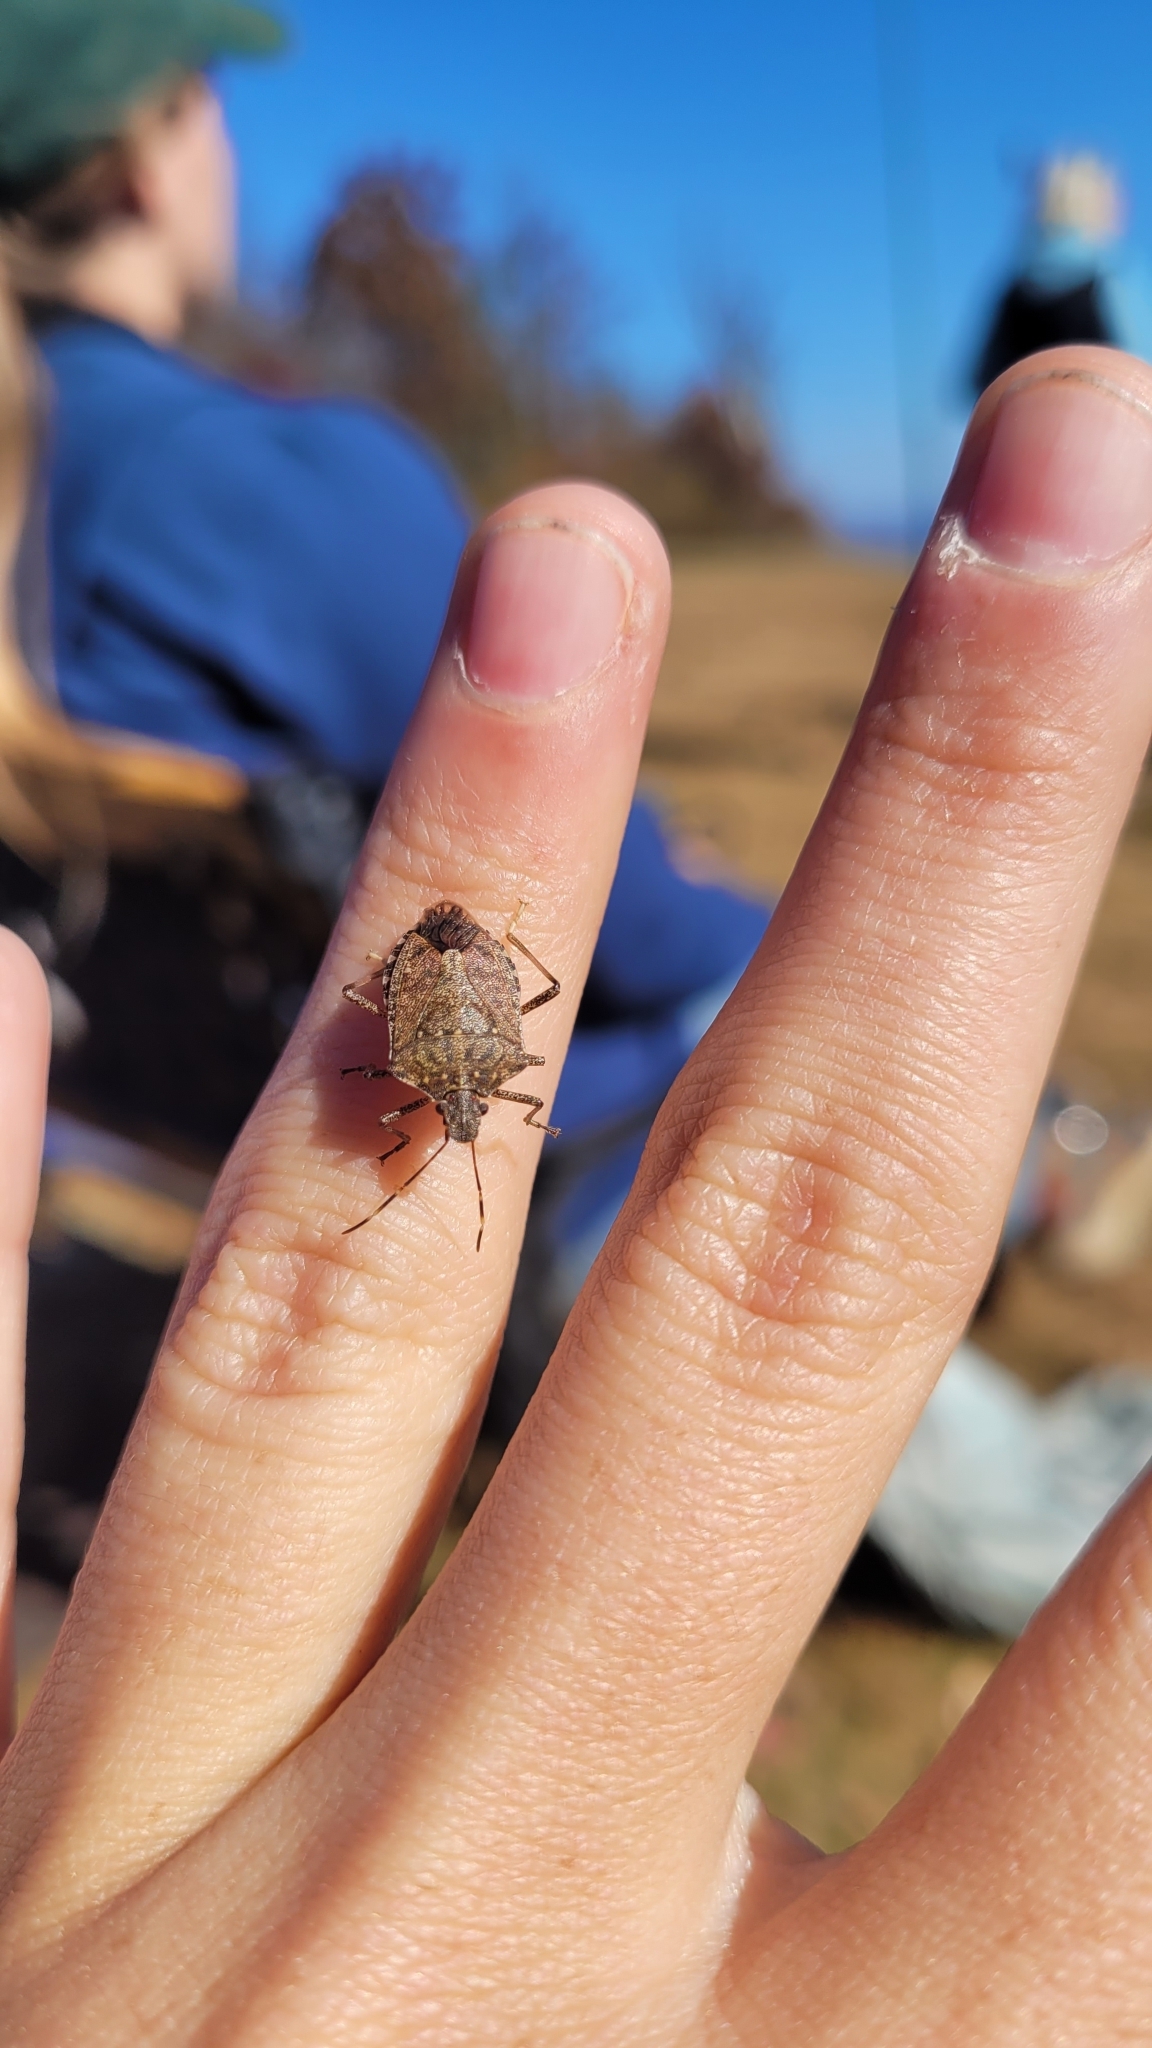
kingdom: Animalia
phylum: Arthropoda
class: Insecta
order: Hemiptera
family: Pentatomidae
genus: Halyomorpha
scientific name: Halyomorpha halys
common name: Brown marmorated stink bug
